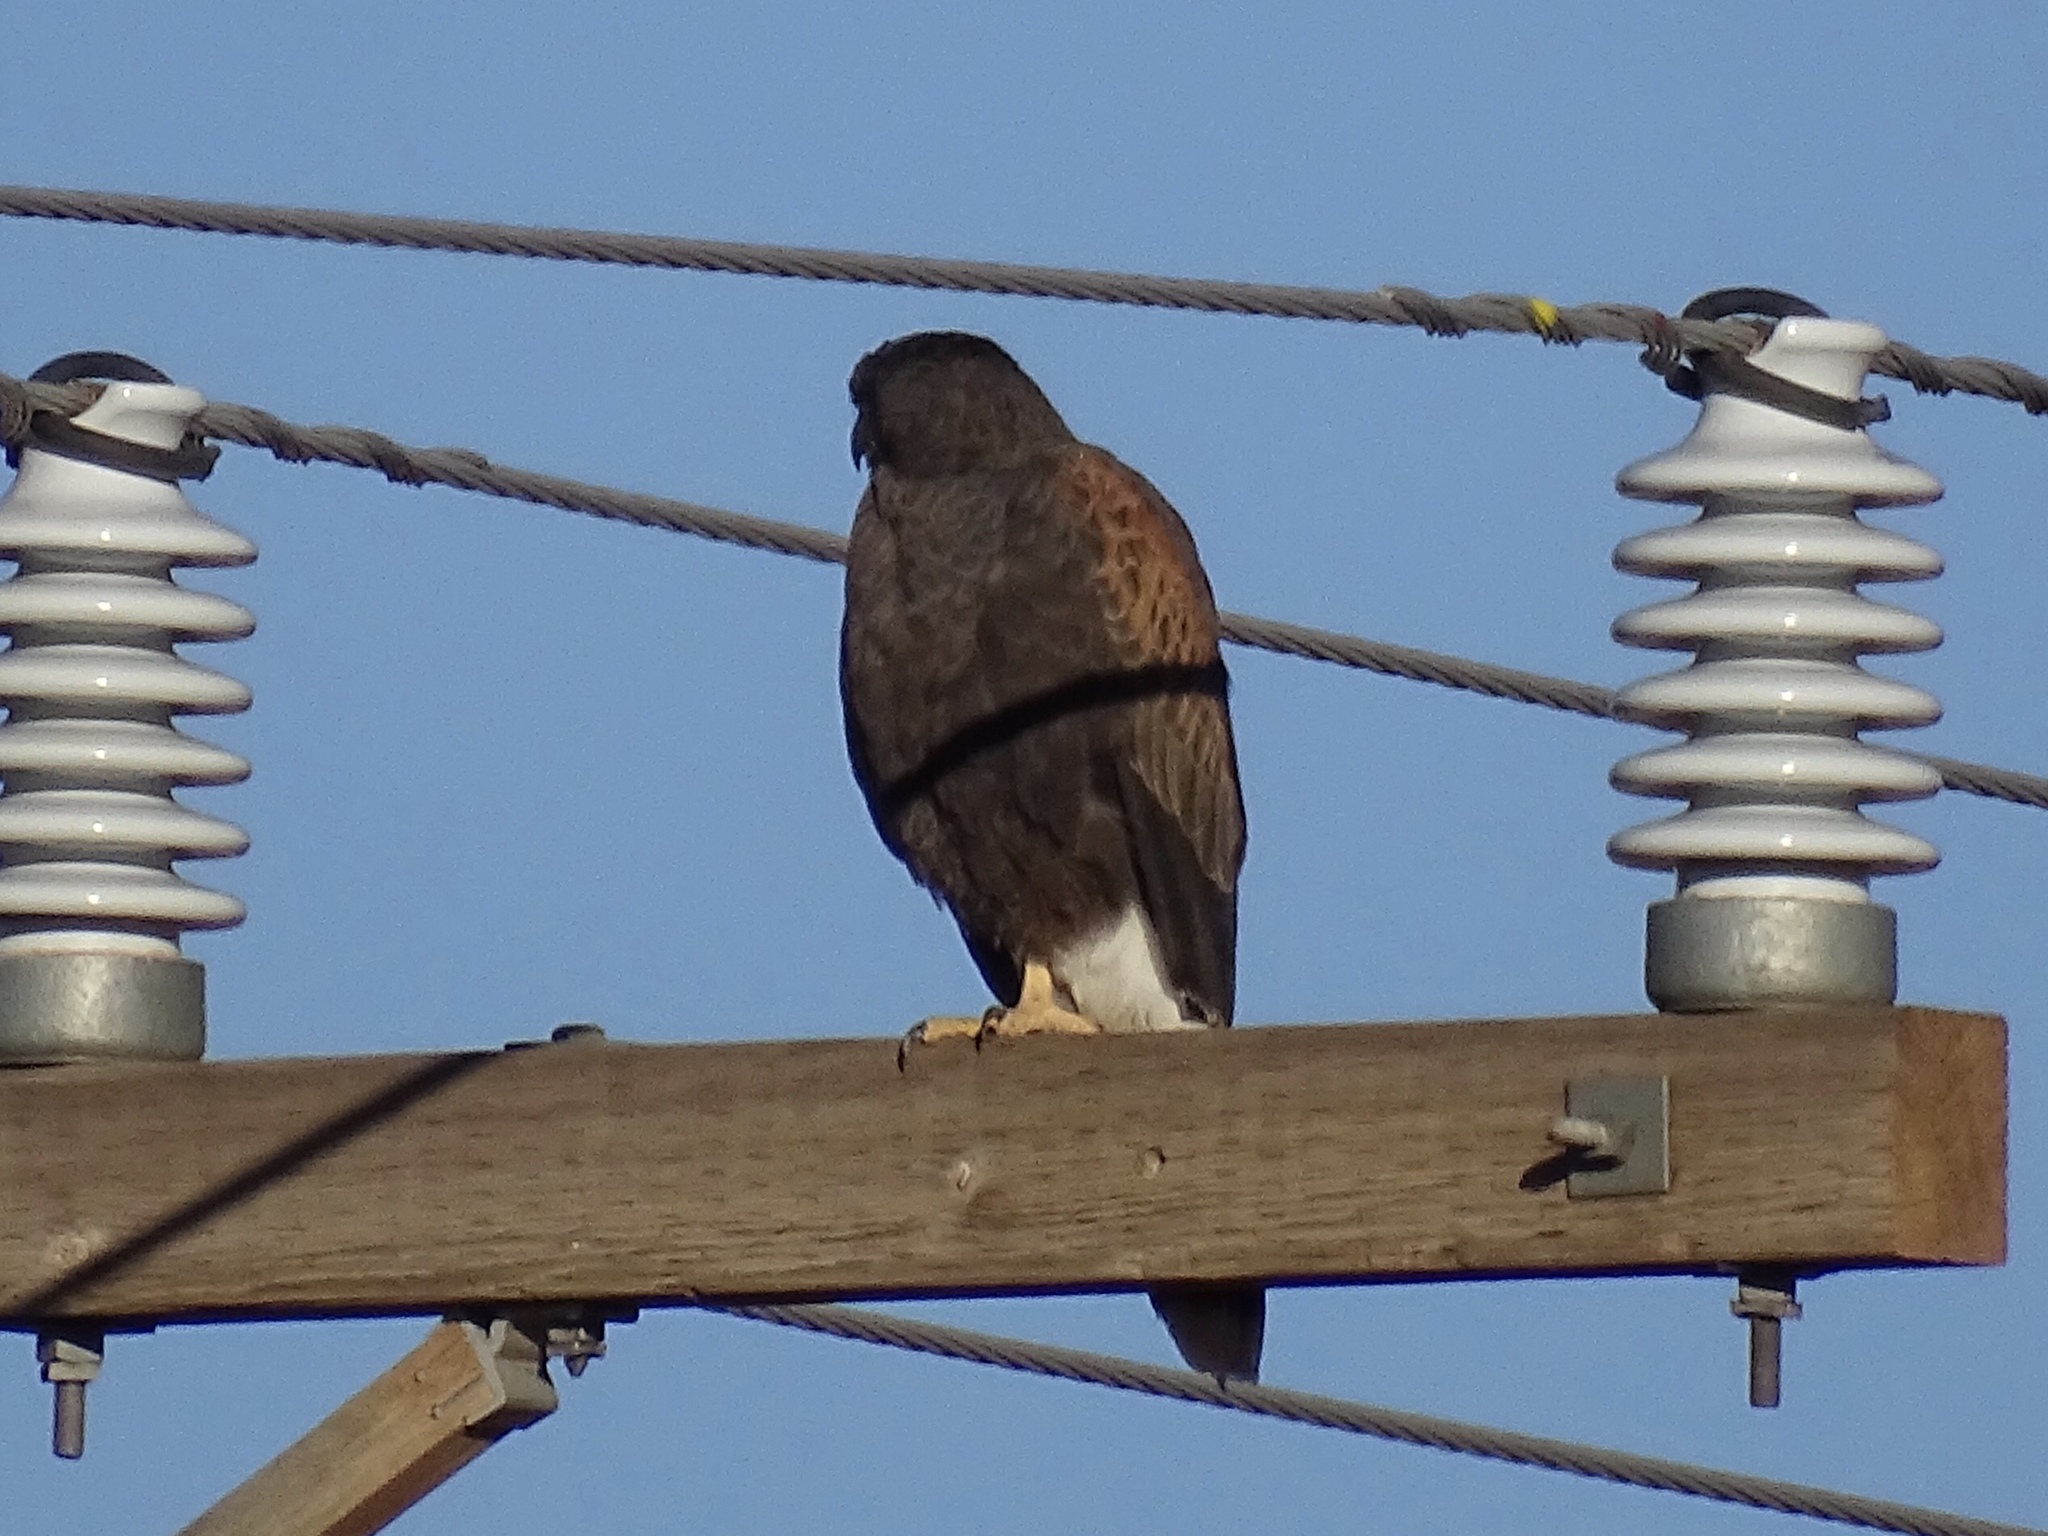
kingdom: Animalia
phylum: Chordata
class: Aves
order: Accipitriformes
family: Accipitridae
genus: Parabuteo
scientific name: Parabuteo unicinctus
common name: Harris's hawk
